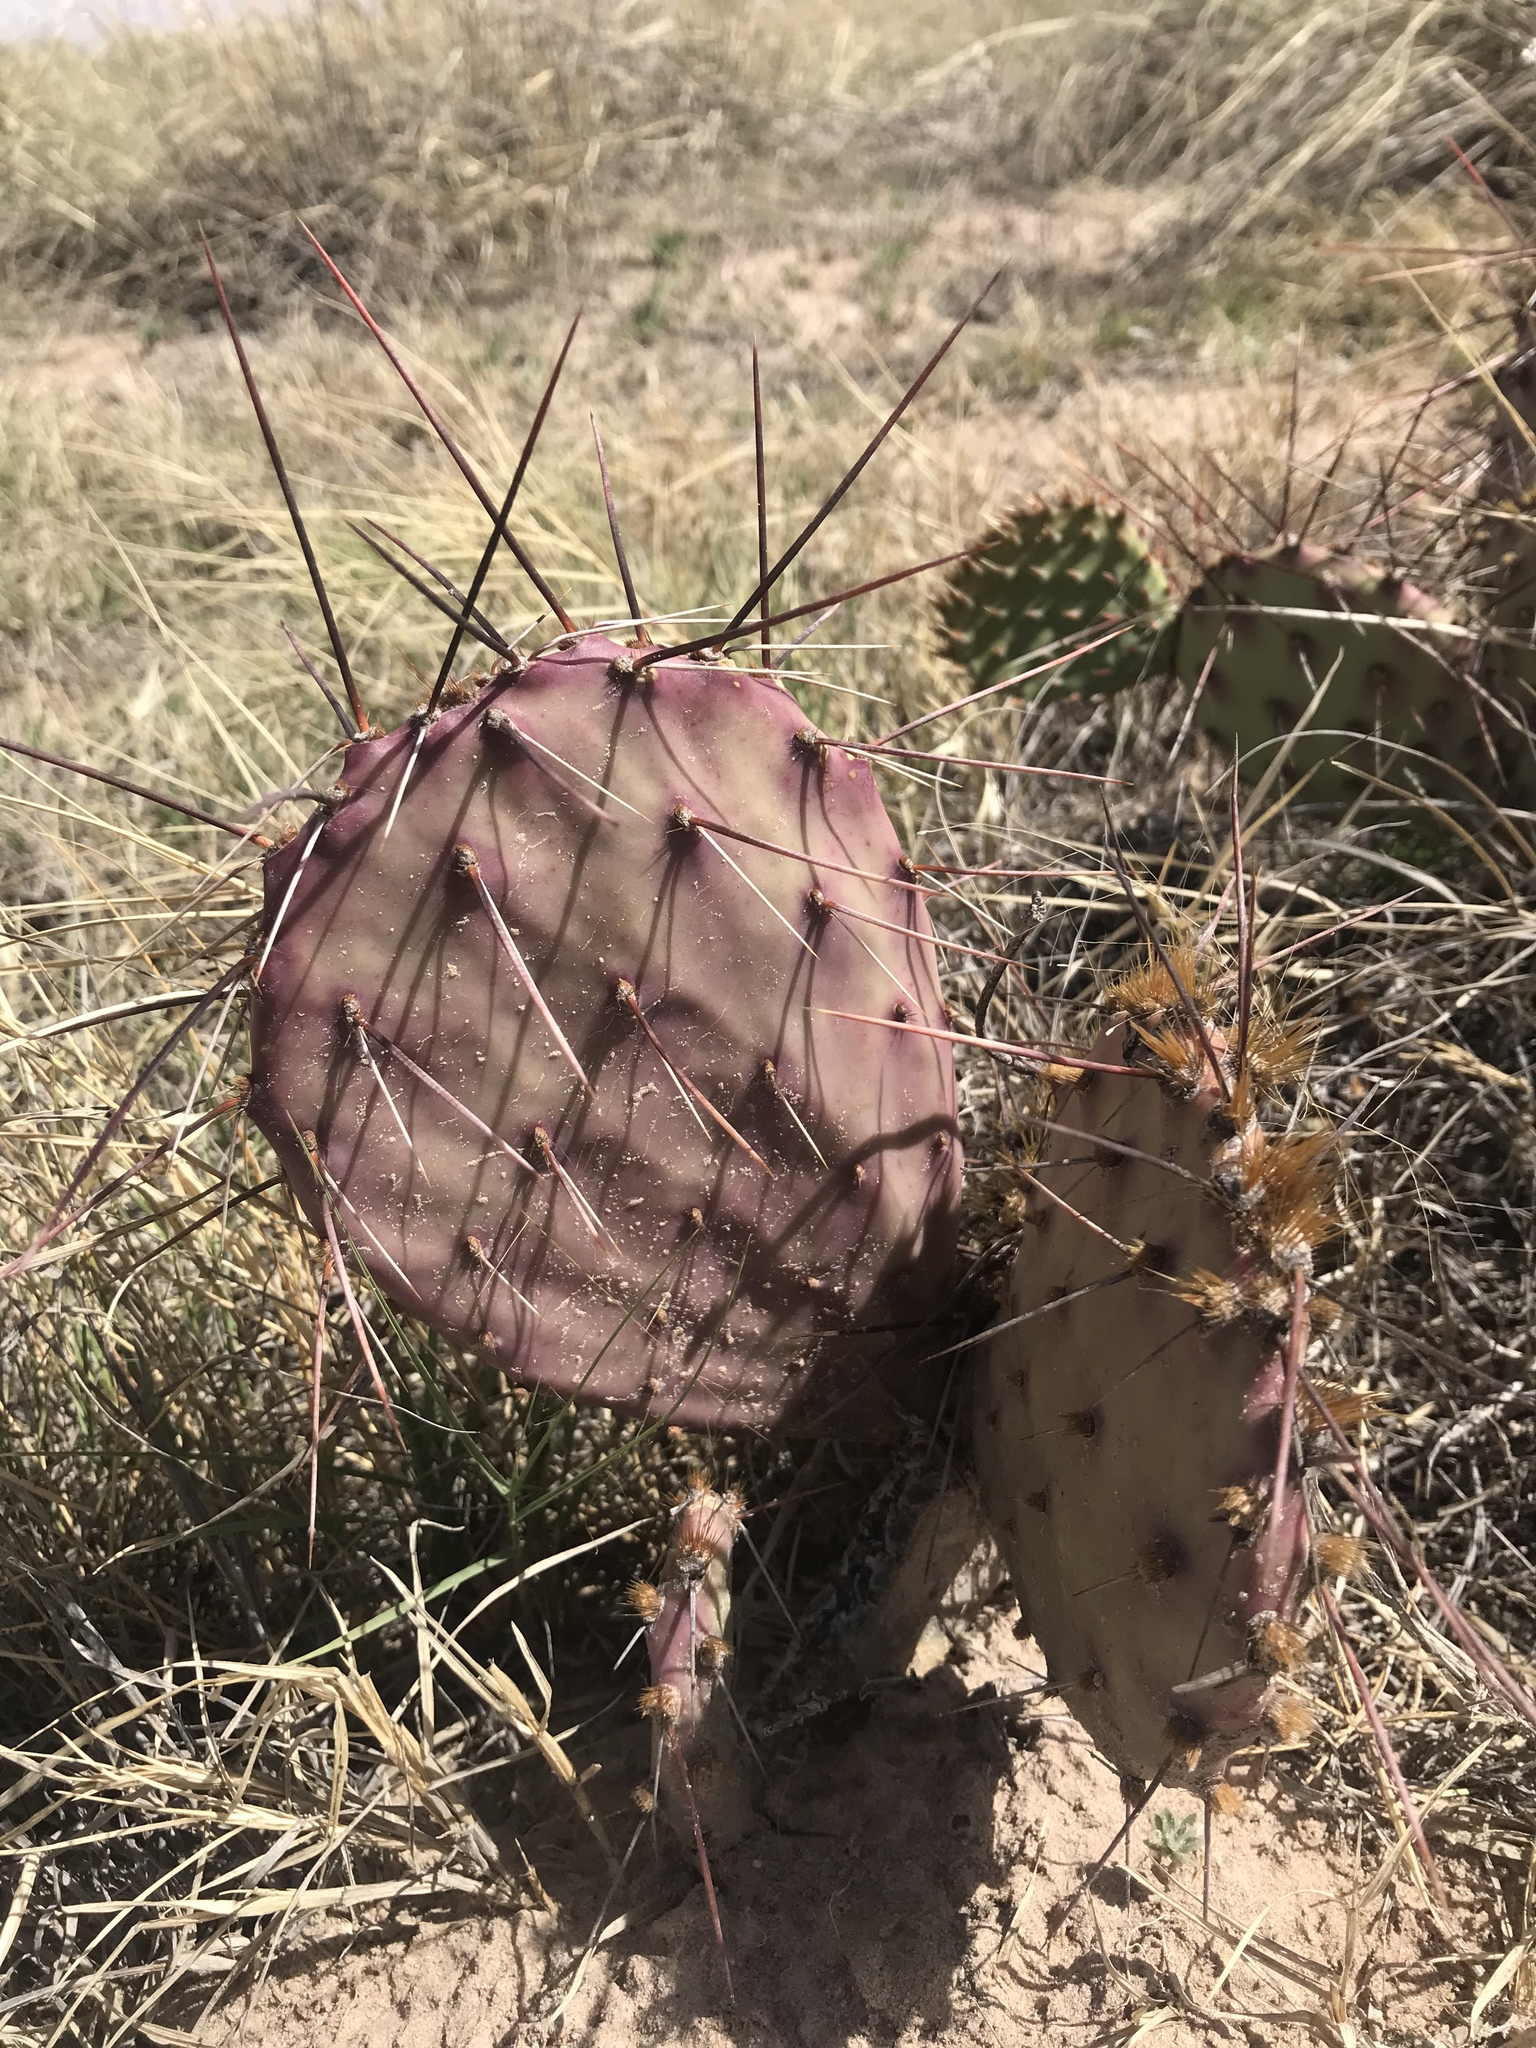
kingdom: Plantae
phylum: Tracheophyta
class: Magnoliopsida
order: Caryophyllales
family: Cactaceae
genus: Opuntia
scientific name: Opuntia macrocentra
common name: Purple prickly-pear
